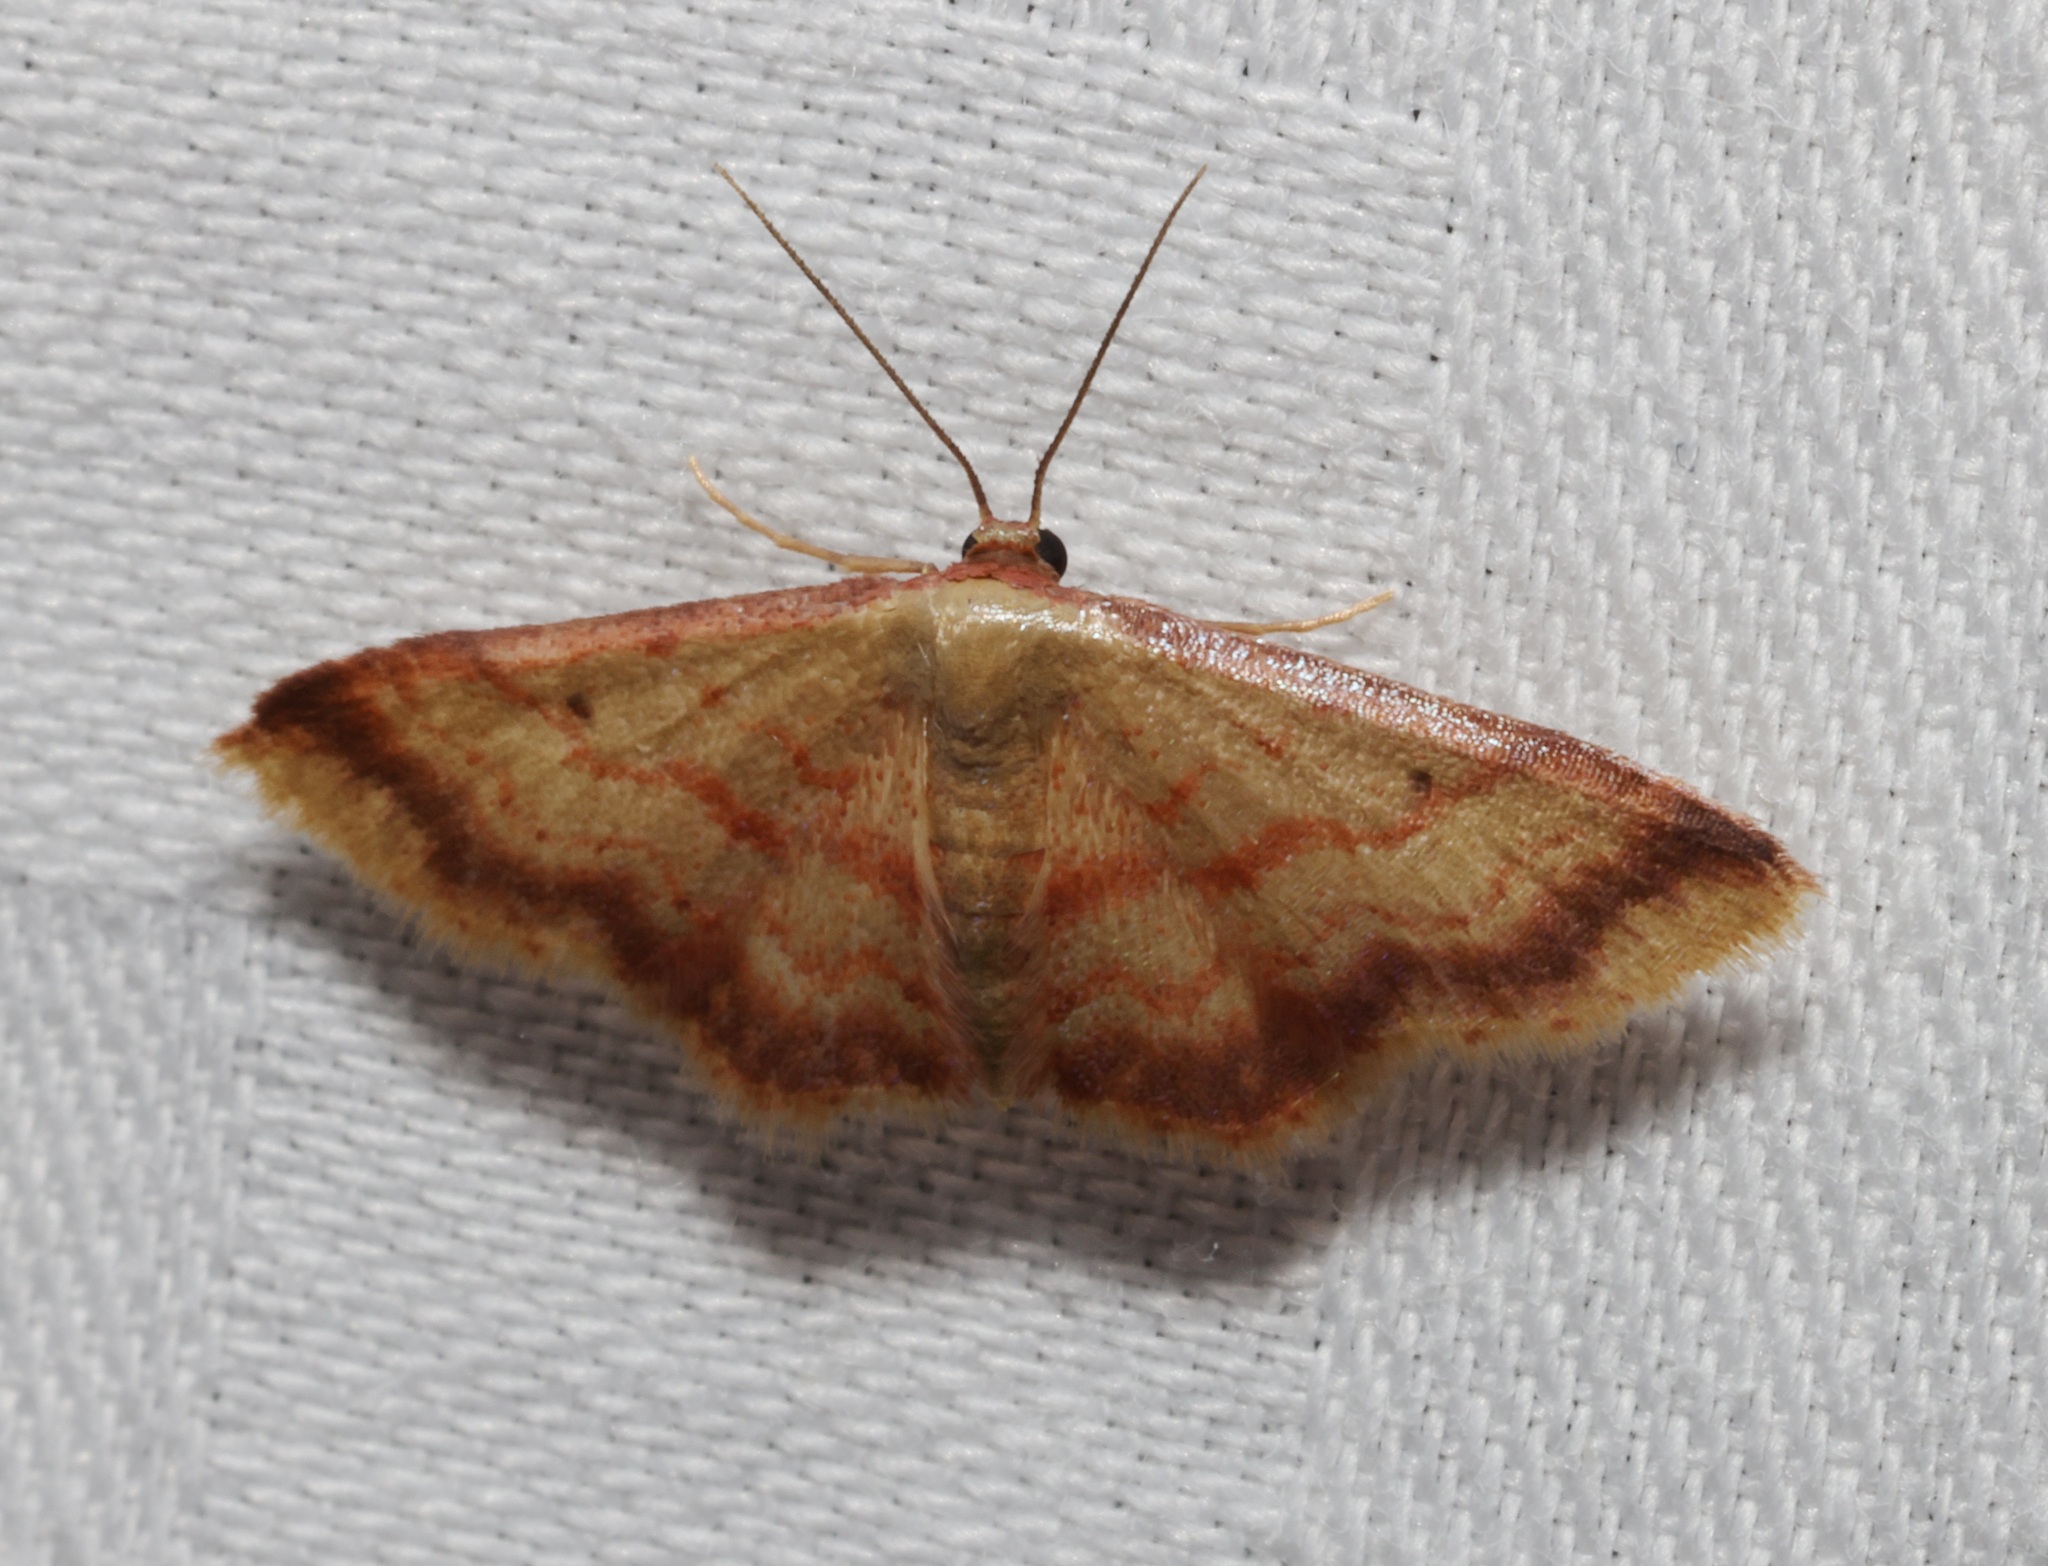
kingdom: Animalia
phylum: Arthropoda
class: Insecta
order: Lepidoptera
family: Geometridae
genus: Idaea
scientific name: Idaea impexa
